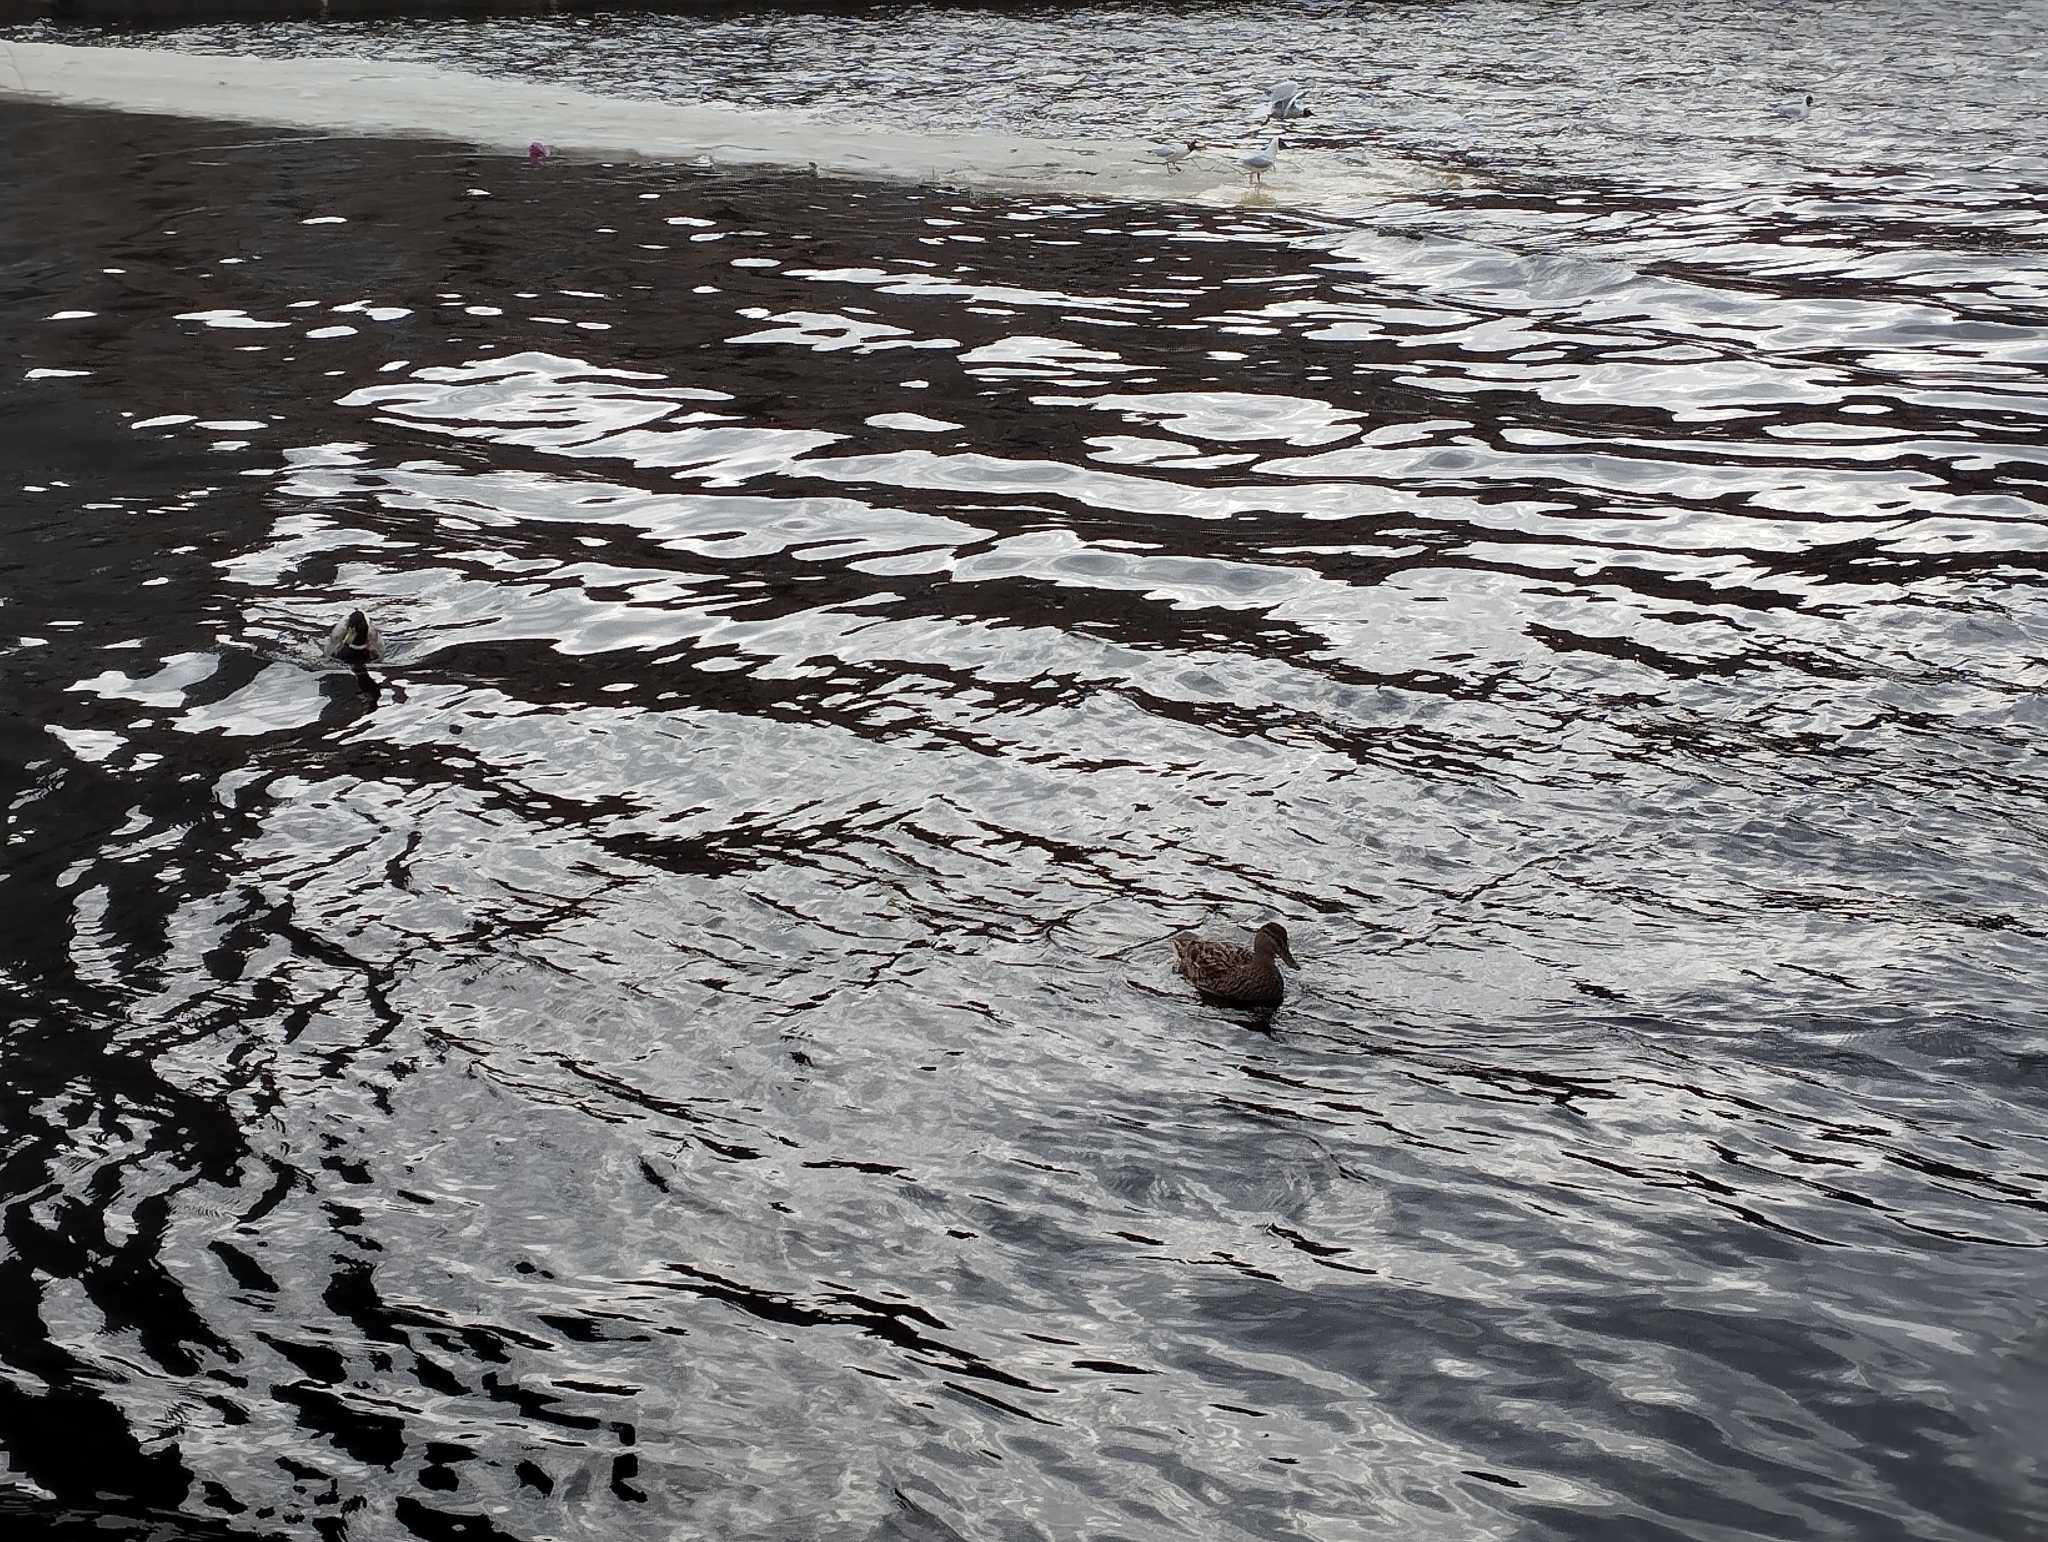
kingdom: Animalia
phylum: Chordata
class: Aves
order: Anseriformes
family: Anatidae
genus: Anas
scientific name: Anas platyrhynchos
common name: Mallard
